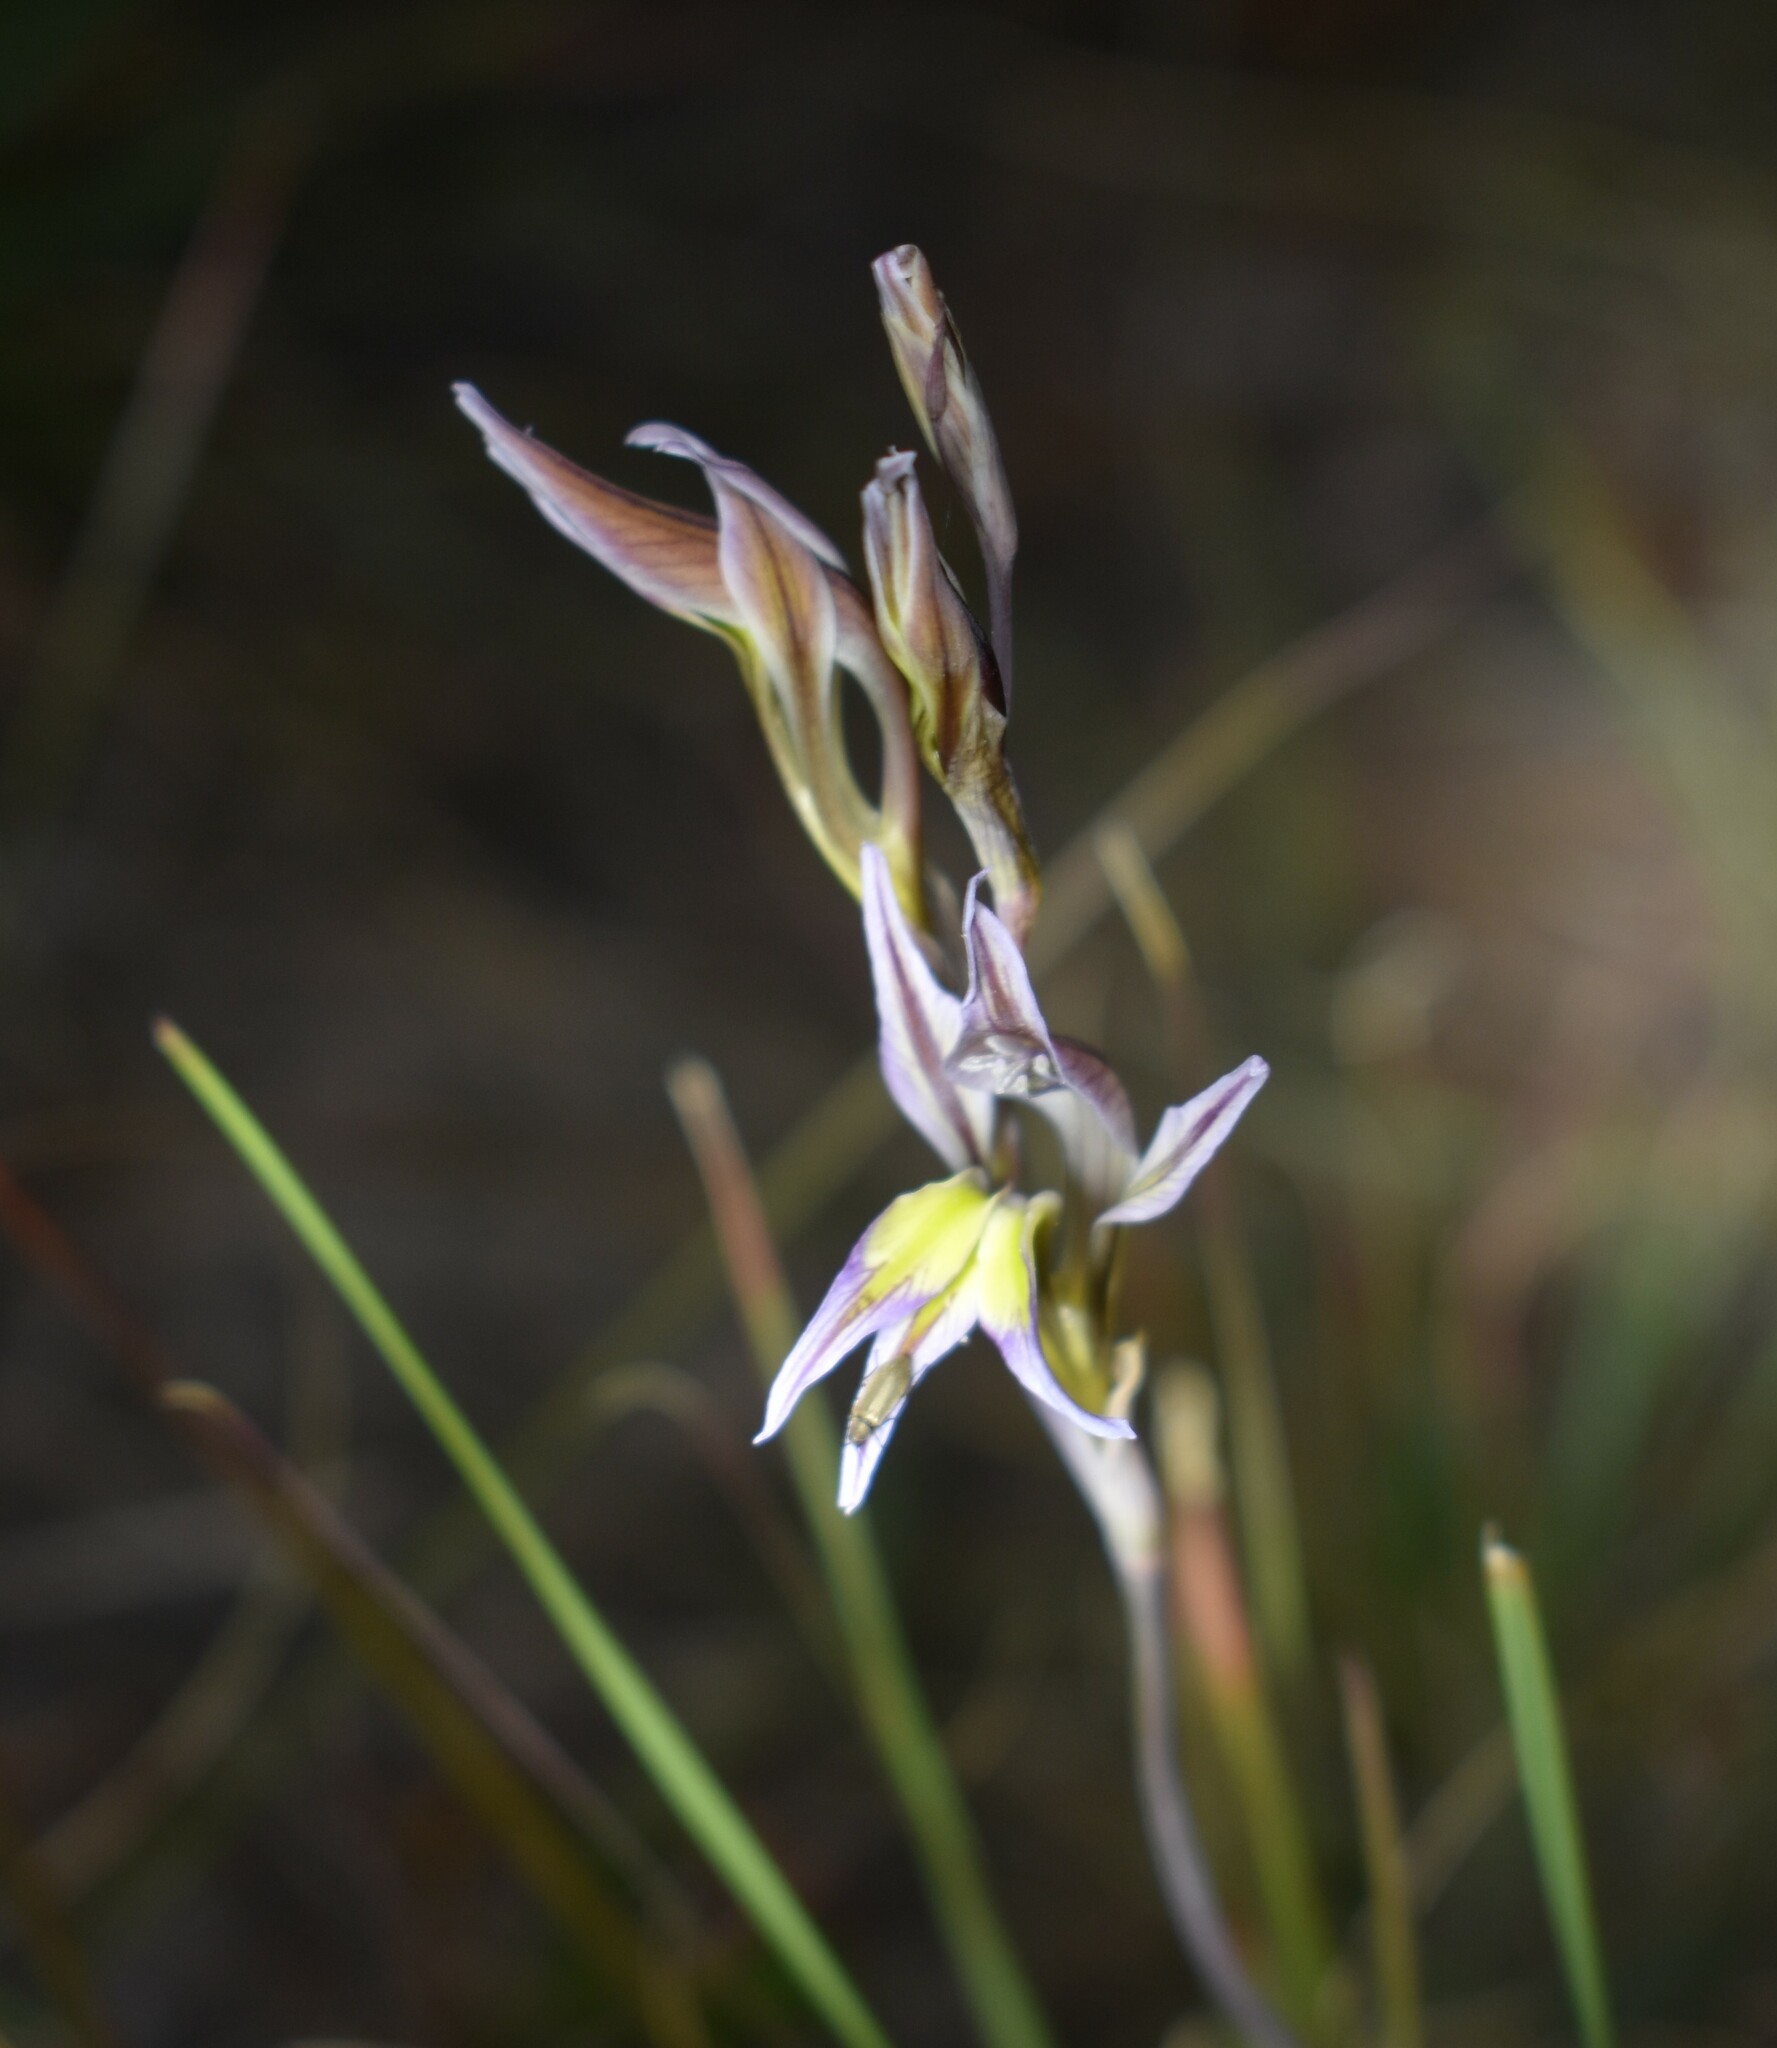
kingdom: Plantae
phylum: Tracheophyta
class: Liliopsida
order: Asparagales
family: Iridaceae
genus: Gladiolus
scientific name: Gladiolus permeabilis
